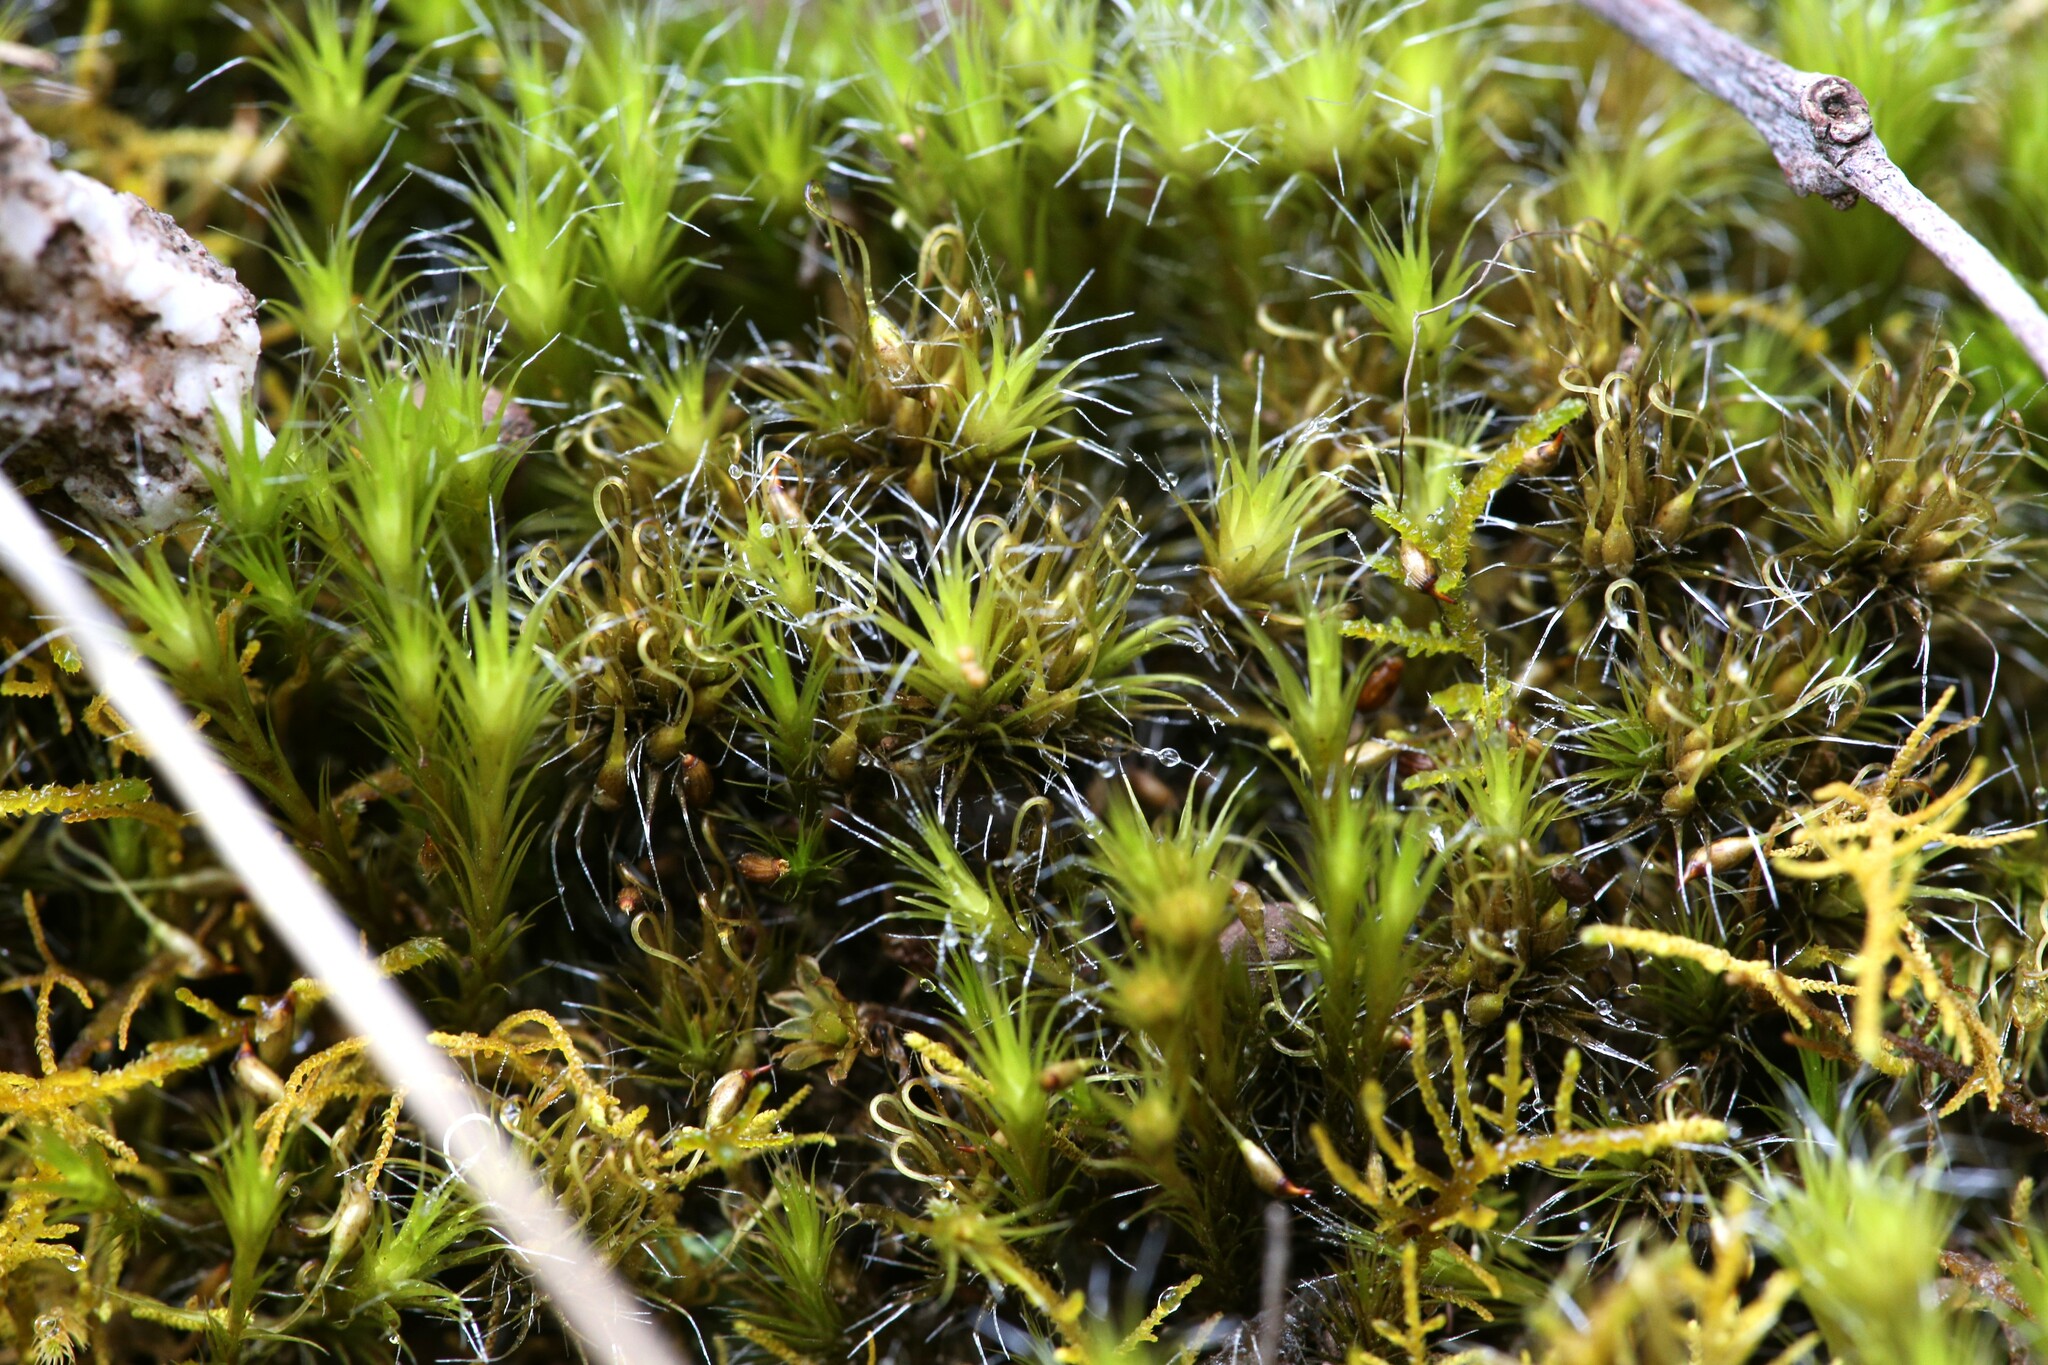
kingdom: Plantae
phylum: Bryophyta
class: Bryopsida
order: Dicranales
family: Leucobryaceae
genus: Campylopus
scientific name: Campylopus introflexus
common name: Heath star moss
